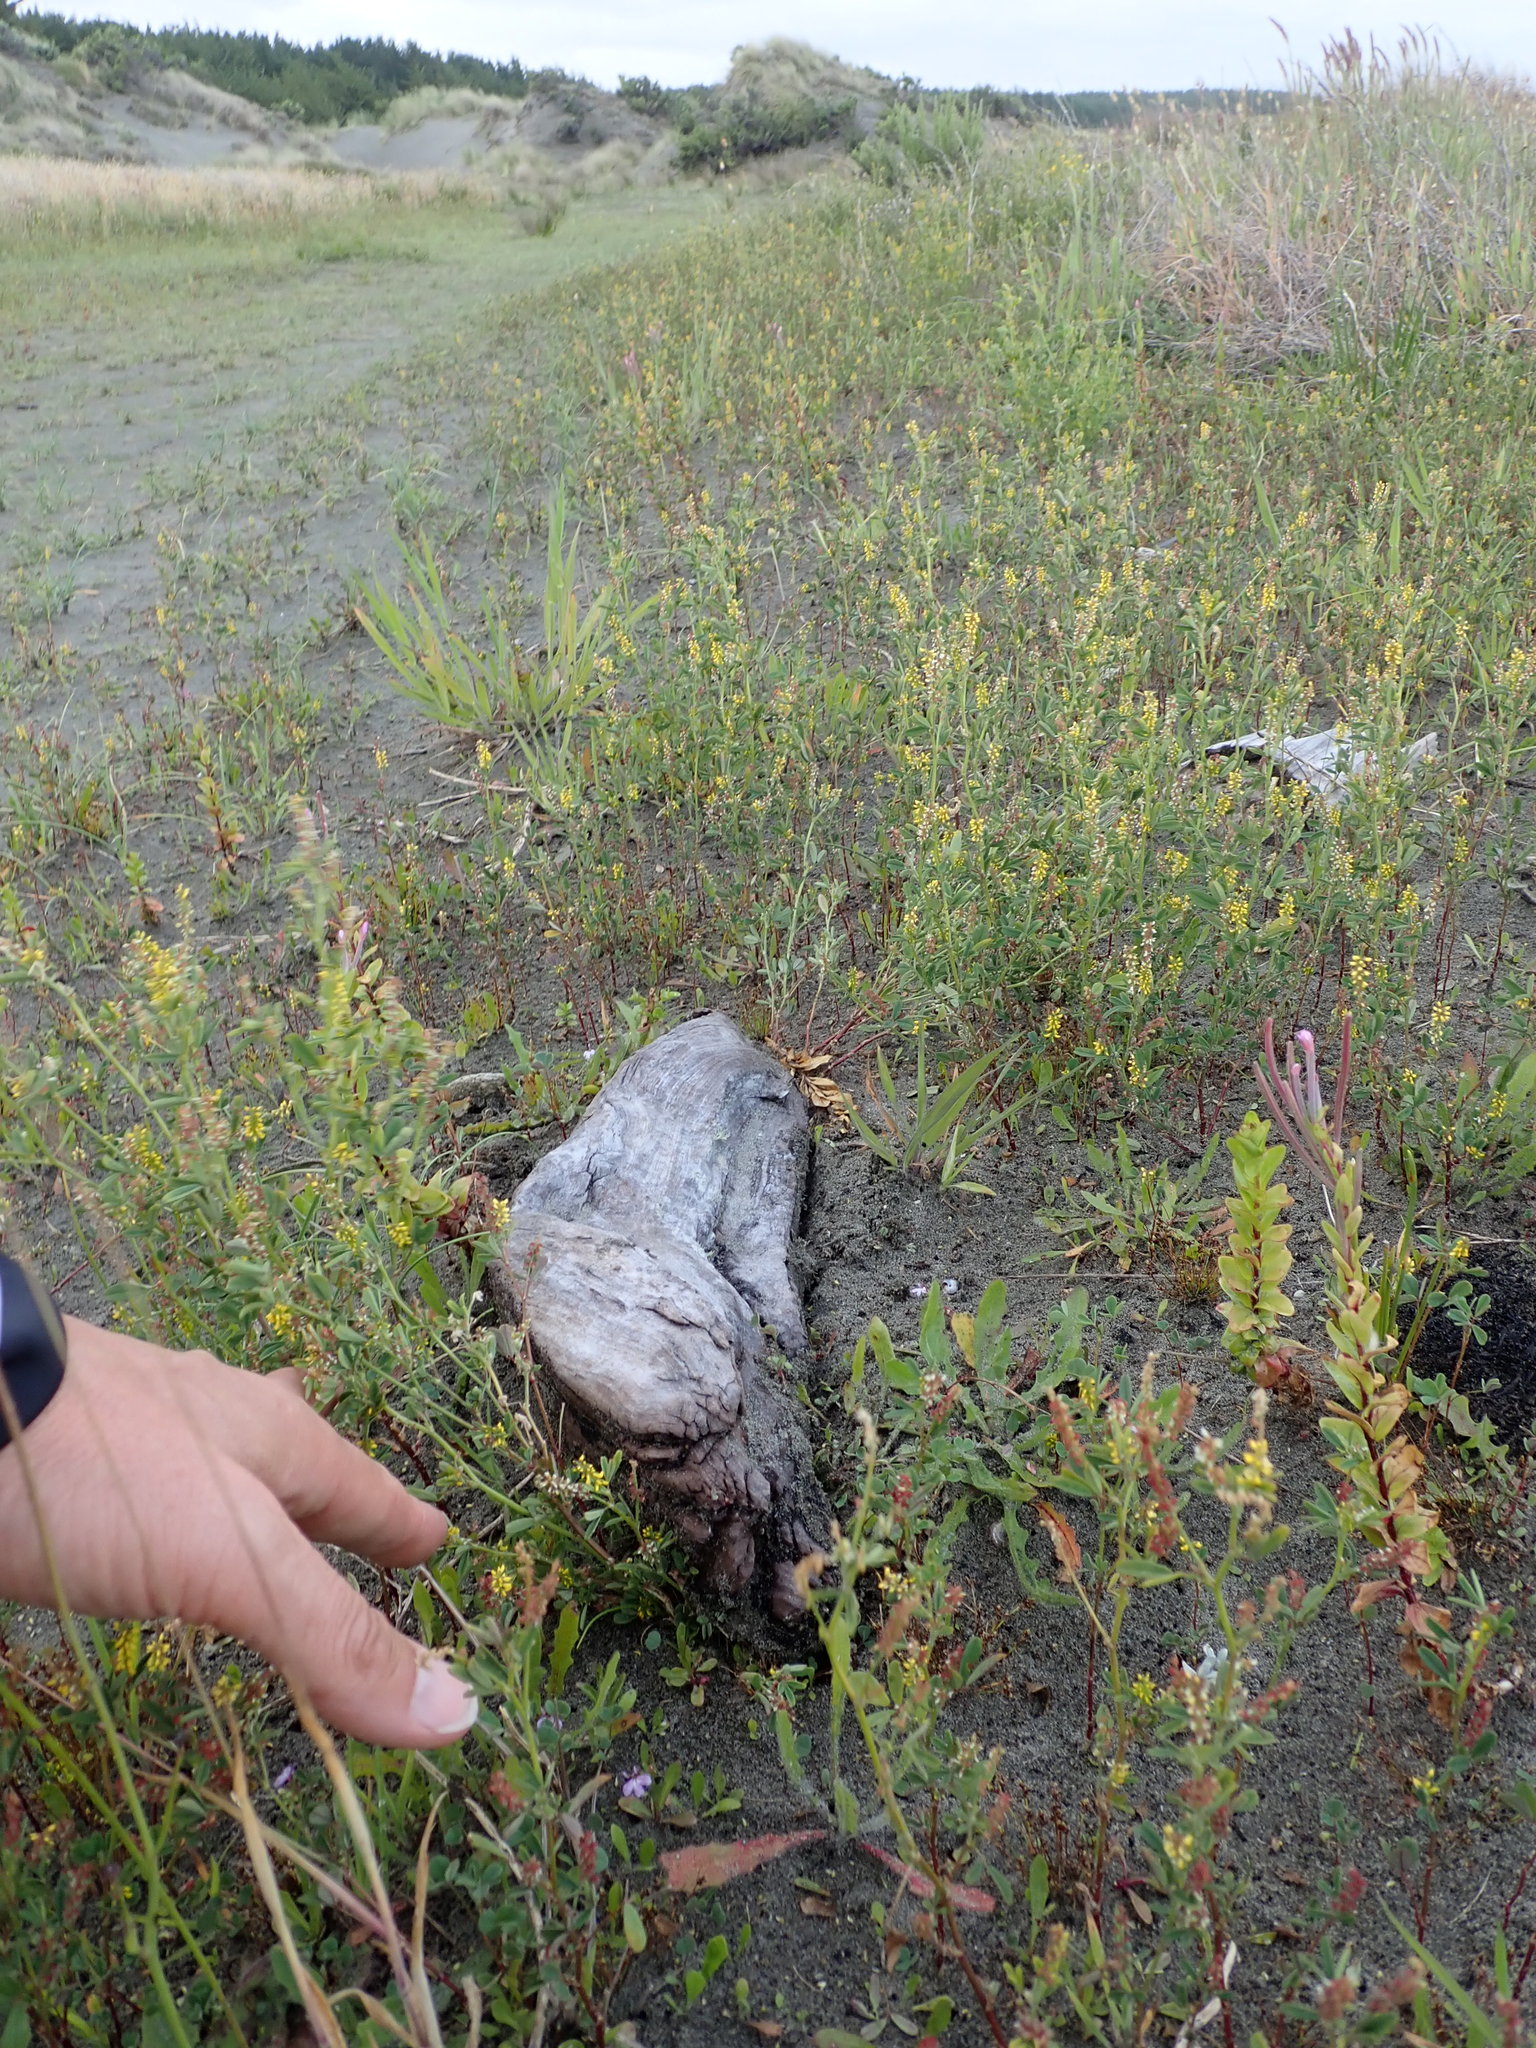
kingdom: Plantae
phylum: Tracheophyta
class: Magnoliopsida
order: Fabales
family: Fabaceae
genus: Melilotus
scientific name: Melilotus indicus
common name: Small melilot
